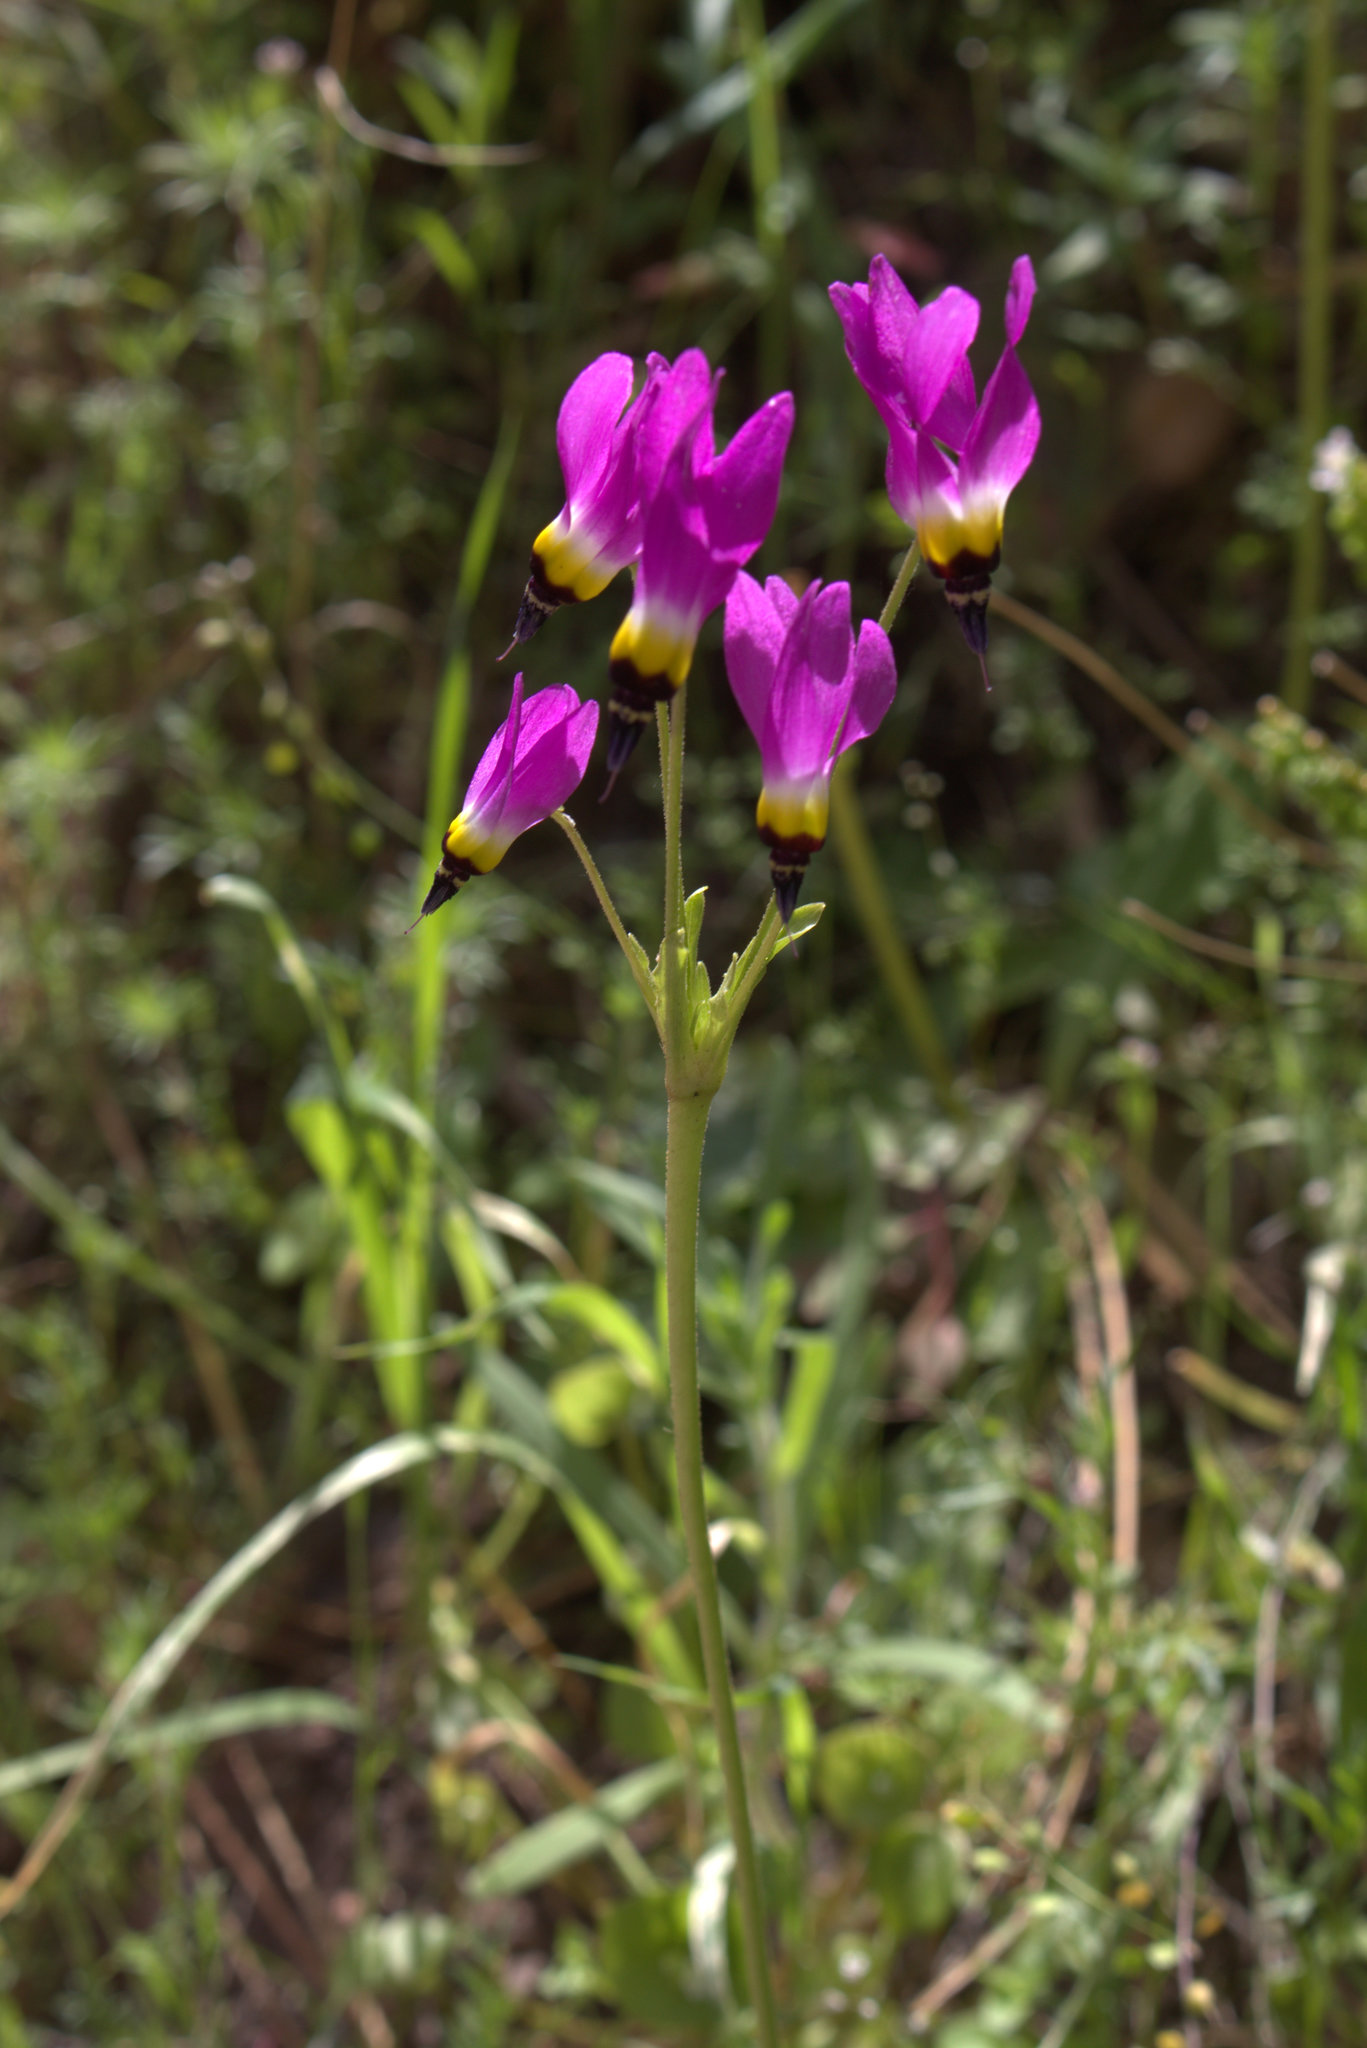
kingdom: Plantae
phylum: Tracheophyta
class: Magnoliopsida
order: Ericales
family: Primulaceae
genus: Dodecatheon
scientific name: Dodecatheon clevelandii
